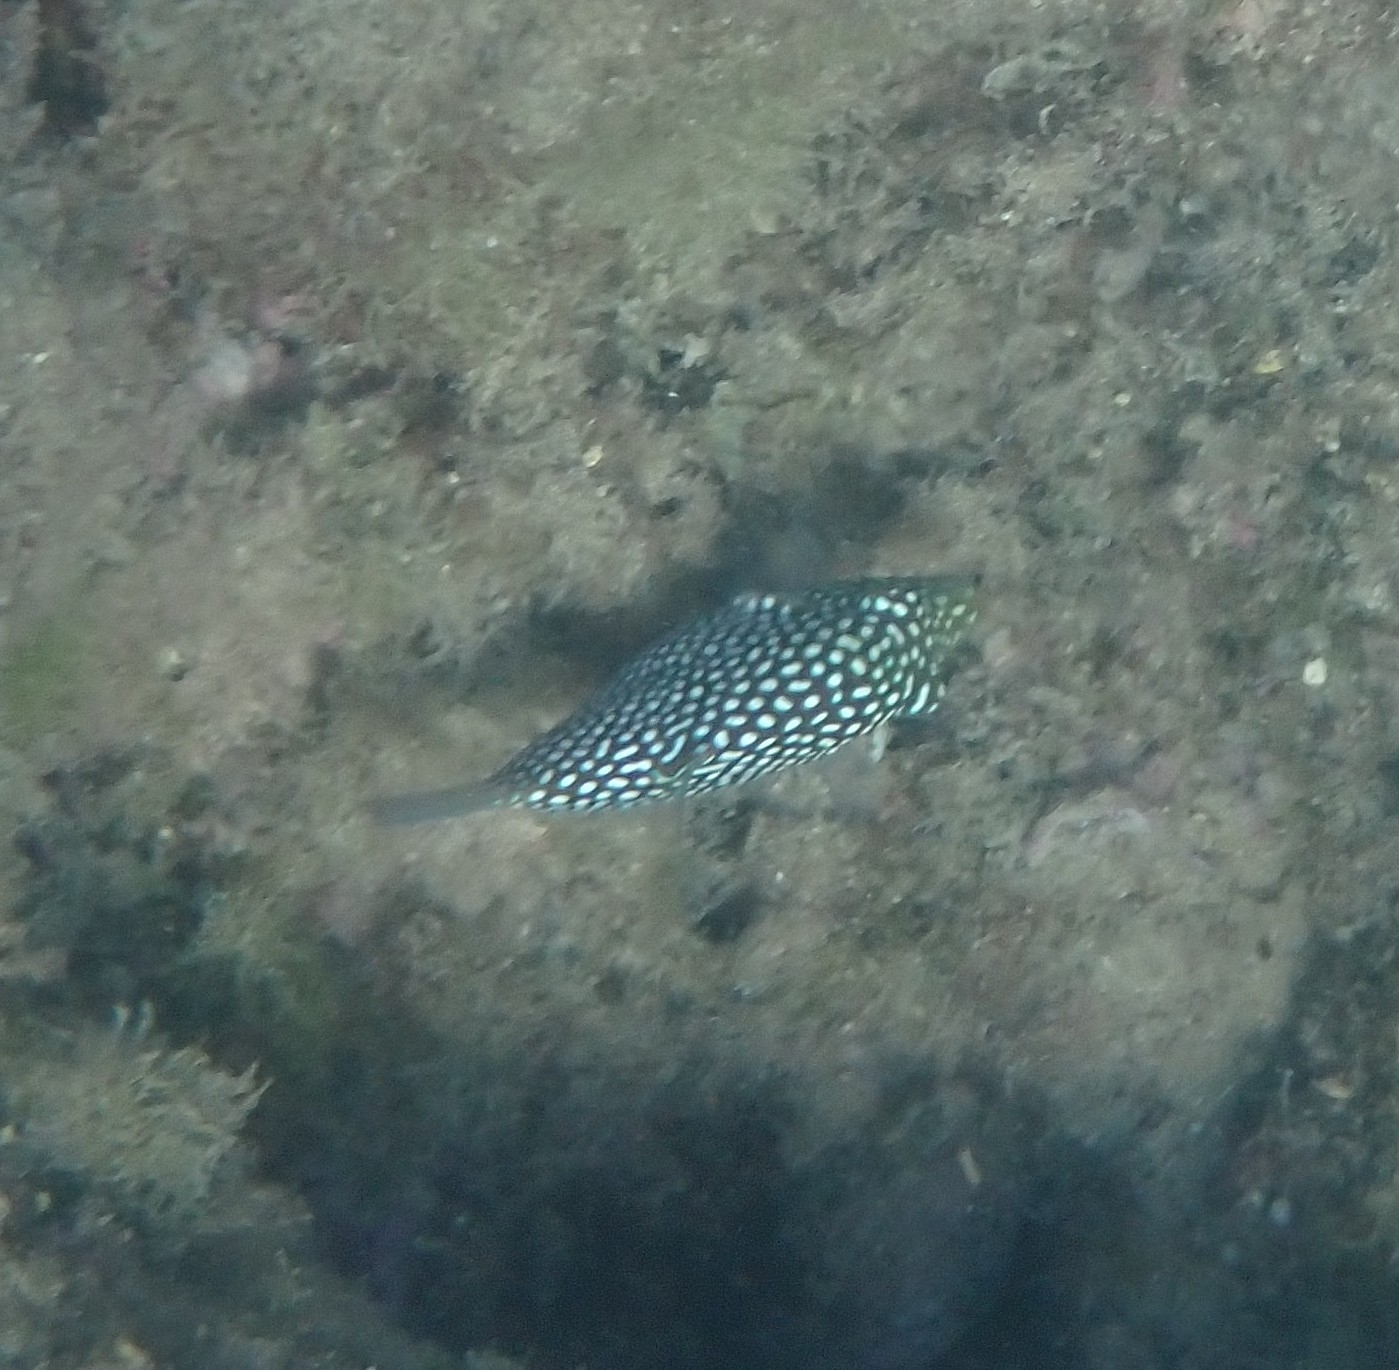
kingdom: Animalia
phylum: Chordata
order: Tetraodontiformes
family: Tetraodontidae
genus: Canthigaster
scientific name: Canthigaster jactator
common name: Hawaiian whitespotted toby
